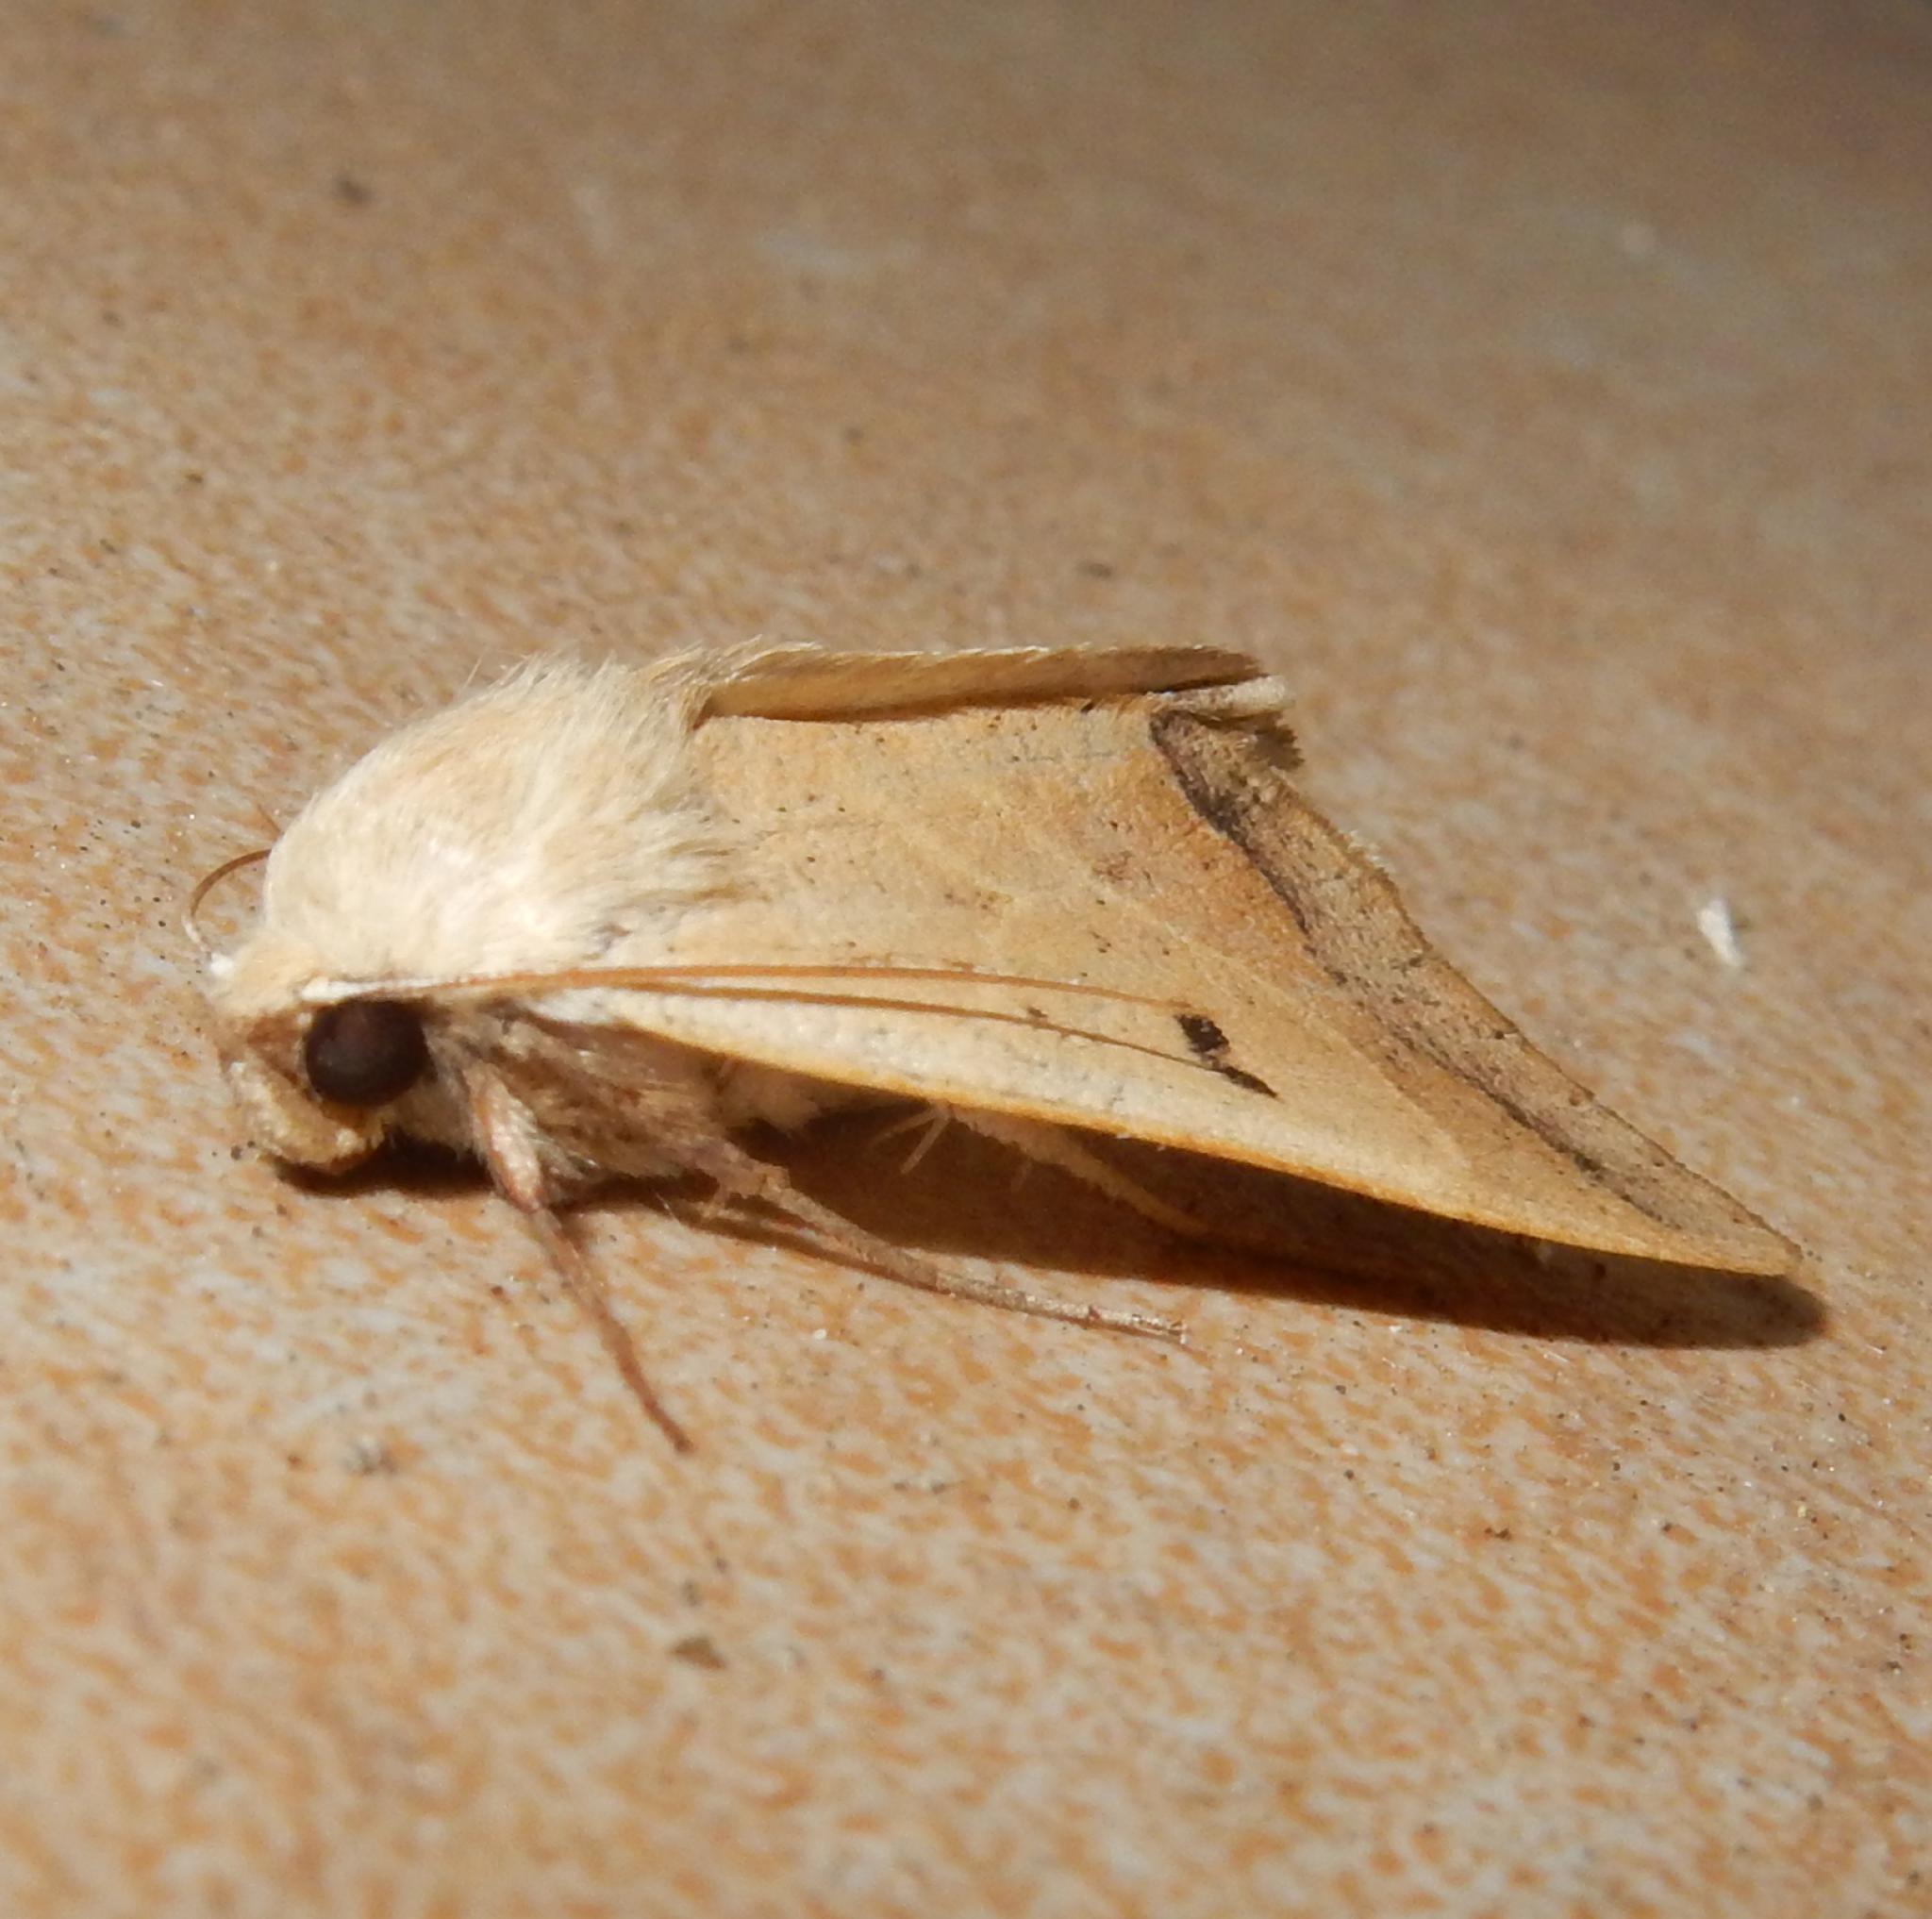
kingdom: Animalia
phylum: Arthropoda
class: Insecta
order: Lepidoptera
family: Erebidae
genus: Ophiusa
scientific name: Ophiusa selenaris
